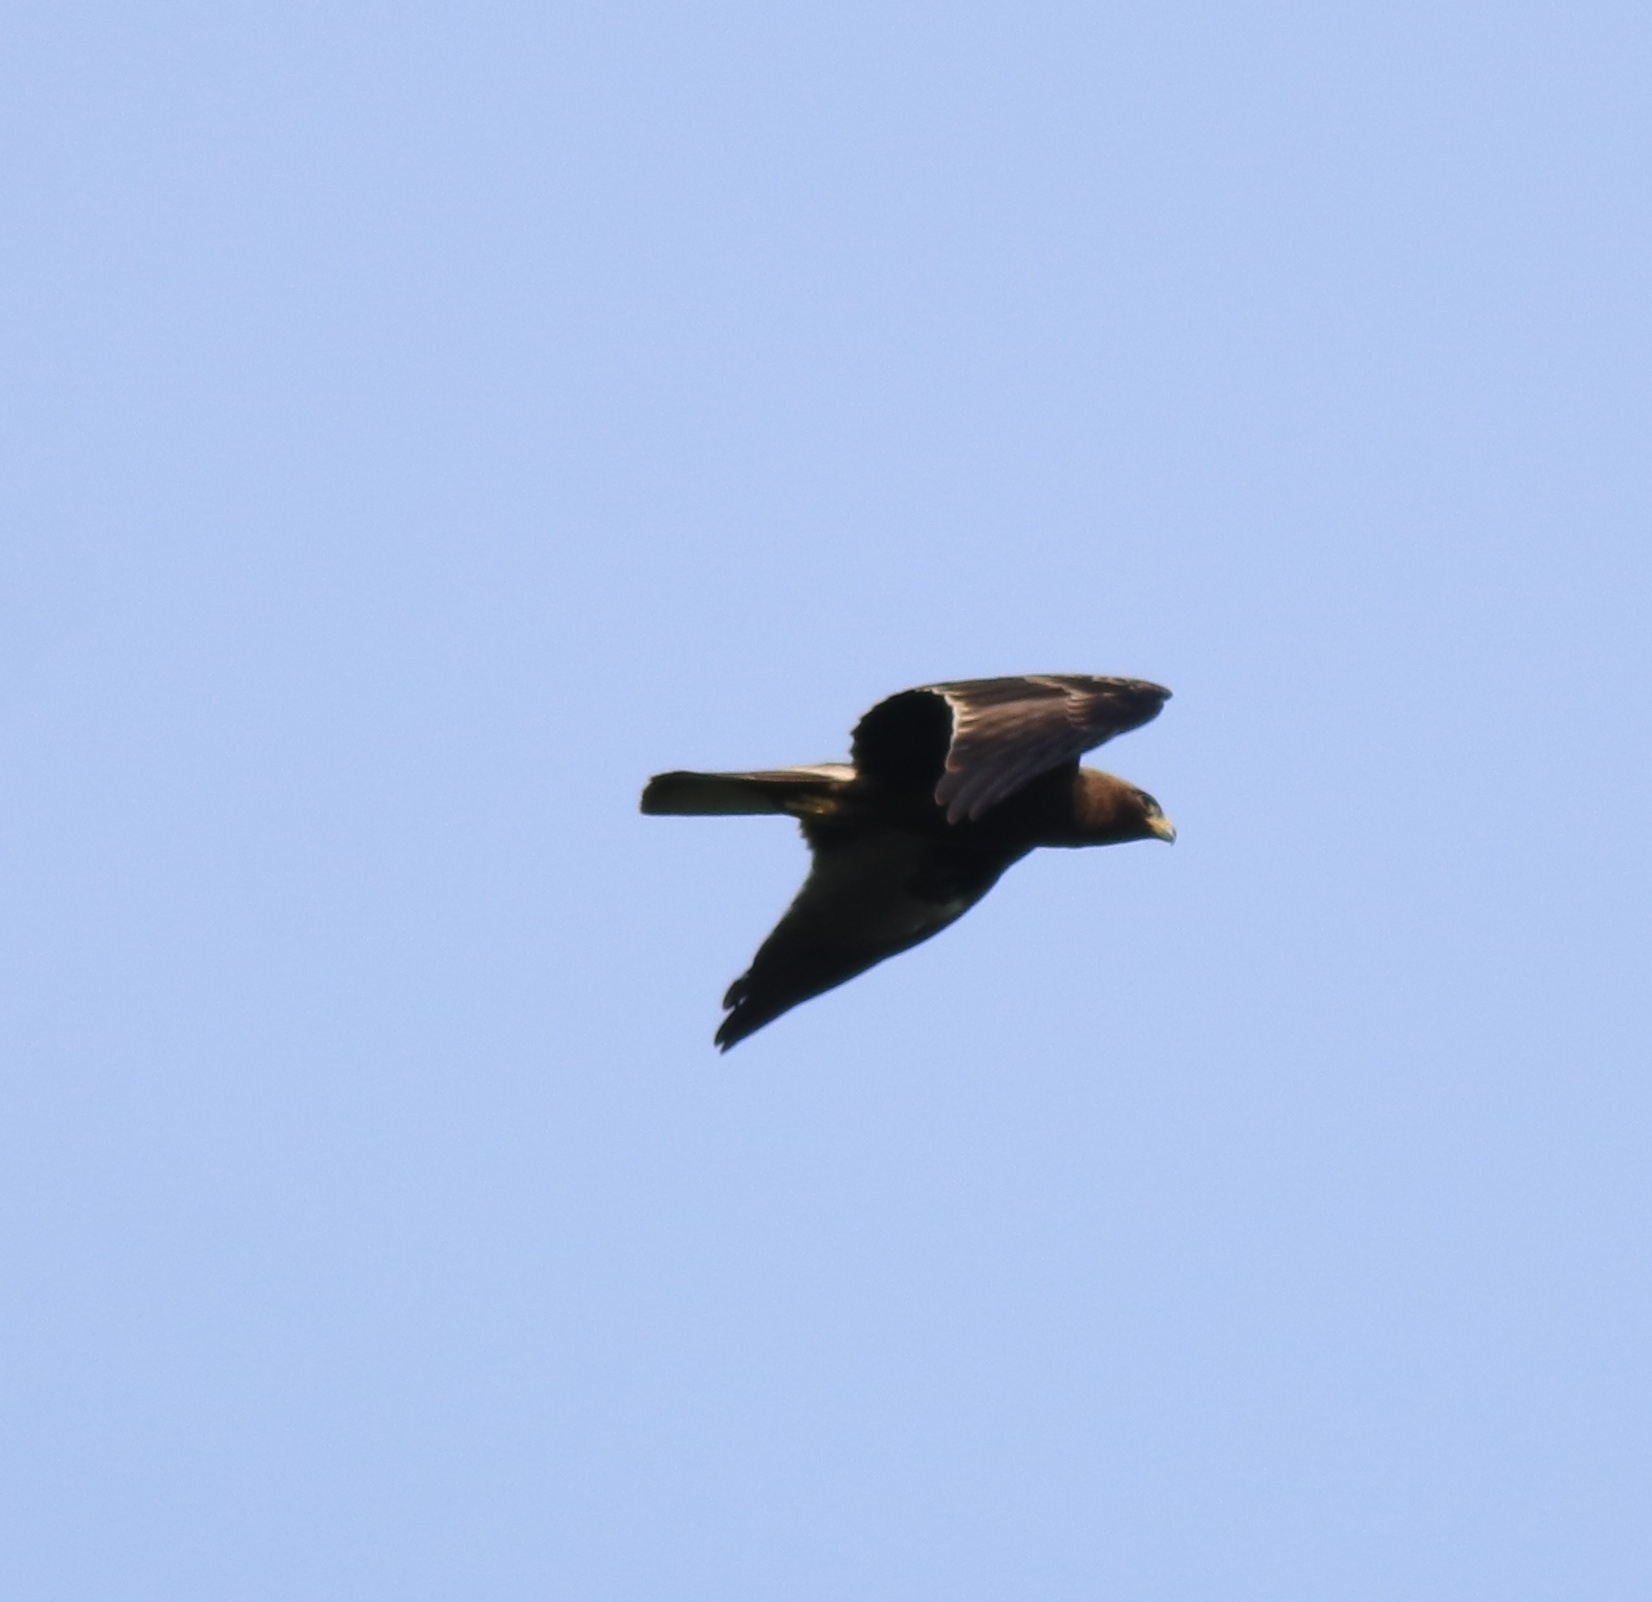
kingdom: Animalia
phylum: Chordata
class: Aves
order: Accipitriformes
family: Accipitridae
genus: Hieraaetus
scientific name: Hieraaetus pennatus
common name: Booted eagle
